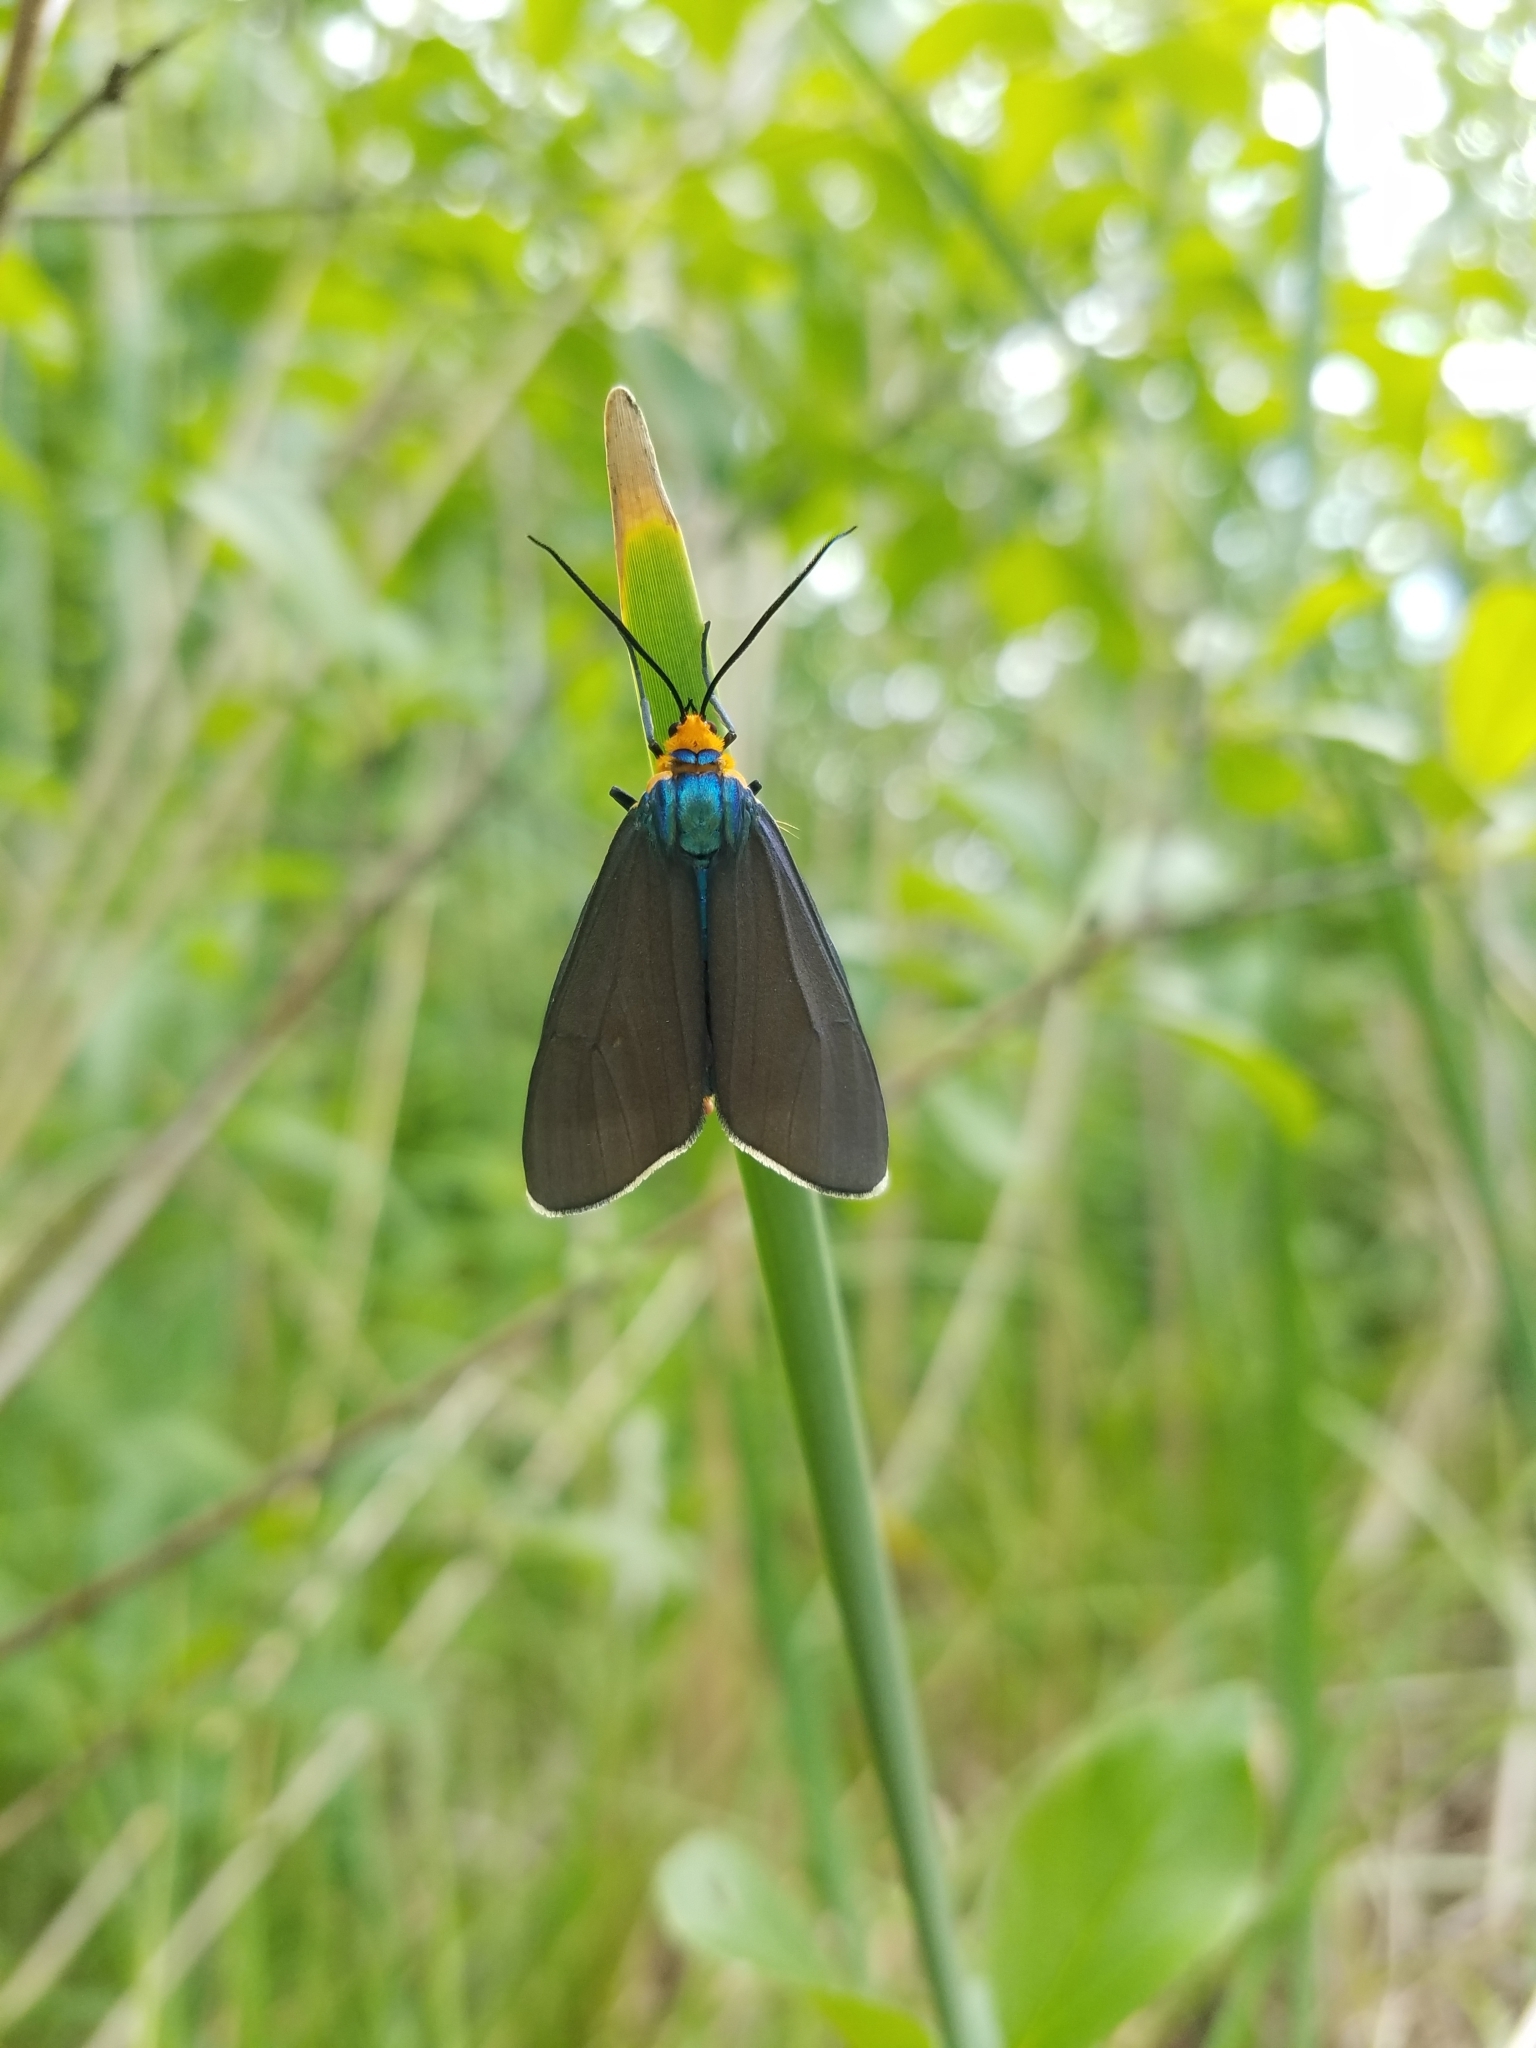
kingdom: Animalia
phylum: Arthropoda
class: Insecta
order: Lepidoptera
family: Erebidae
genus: Ctenucha
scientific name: Ctenucha virginica
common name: Virginia ctenucha moth
